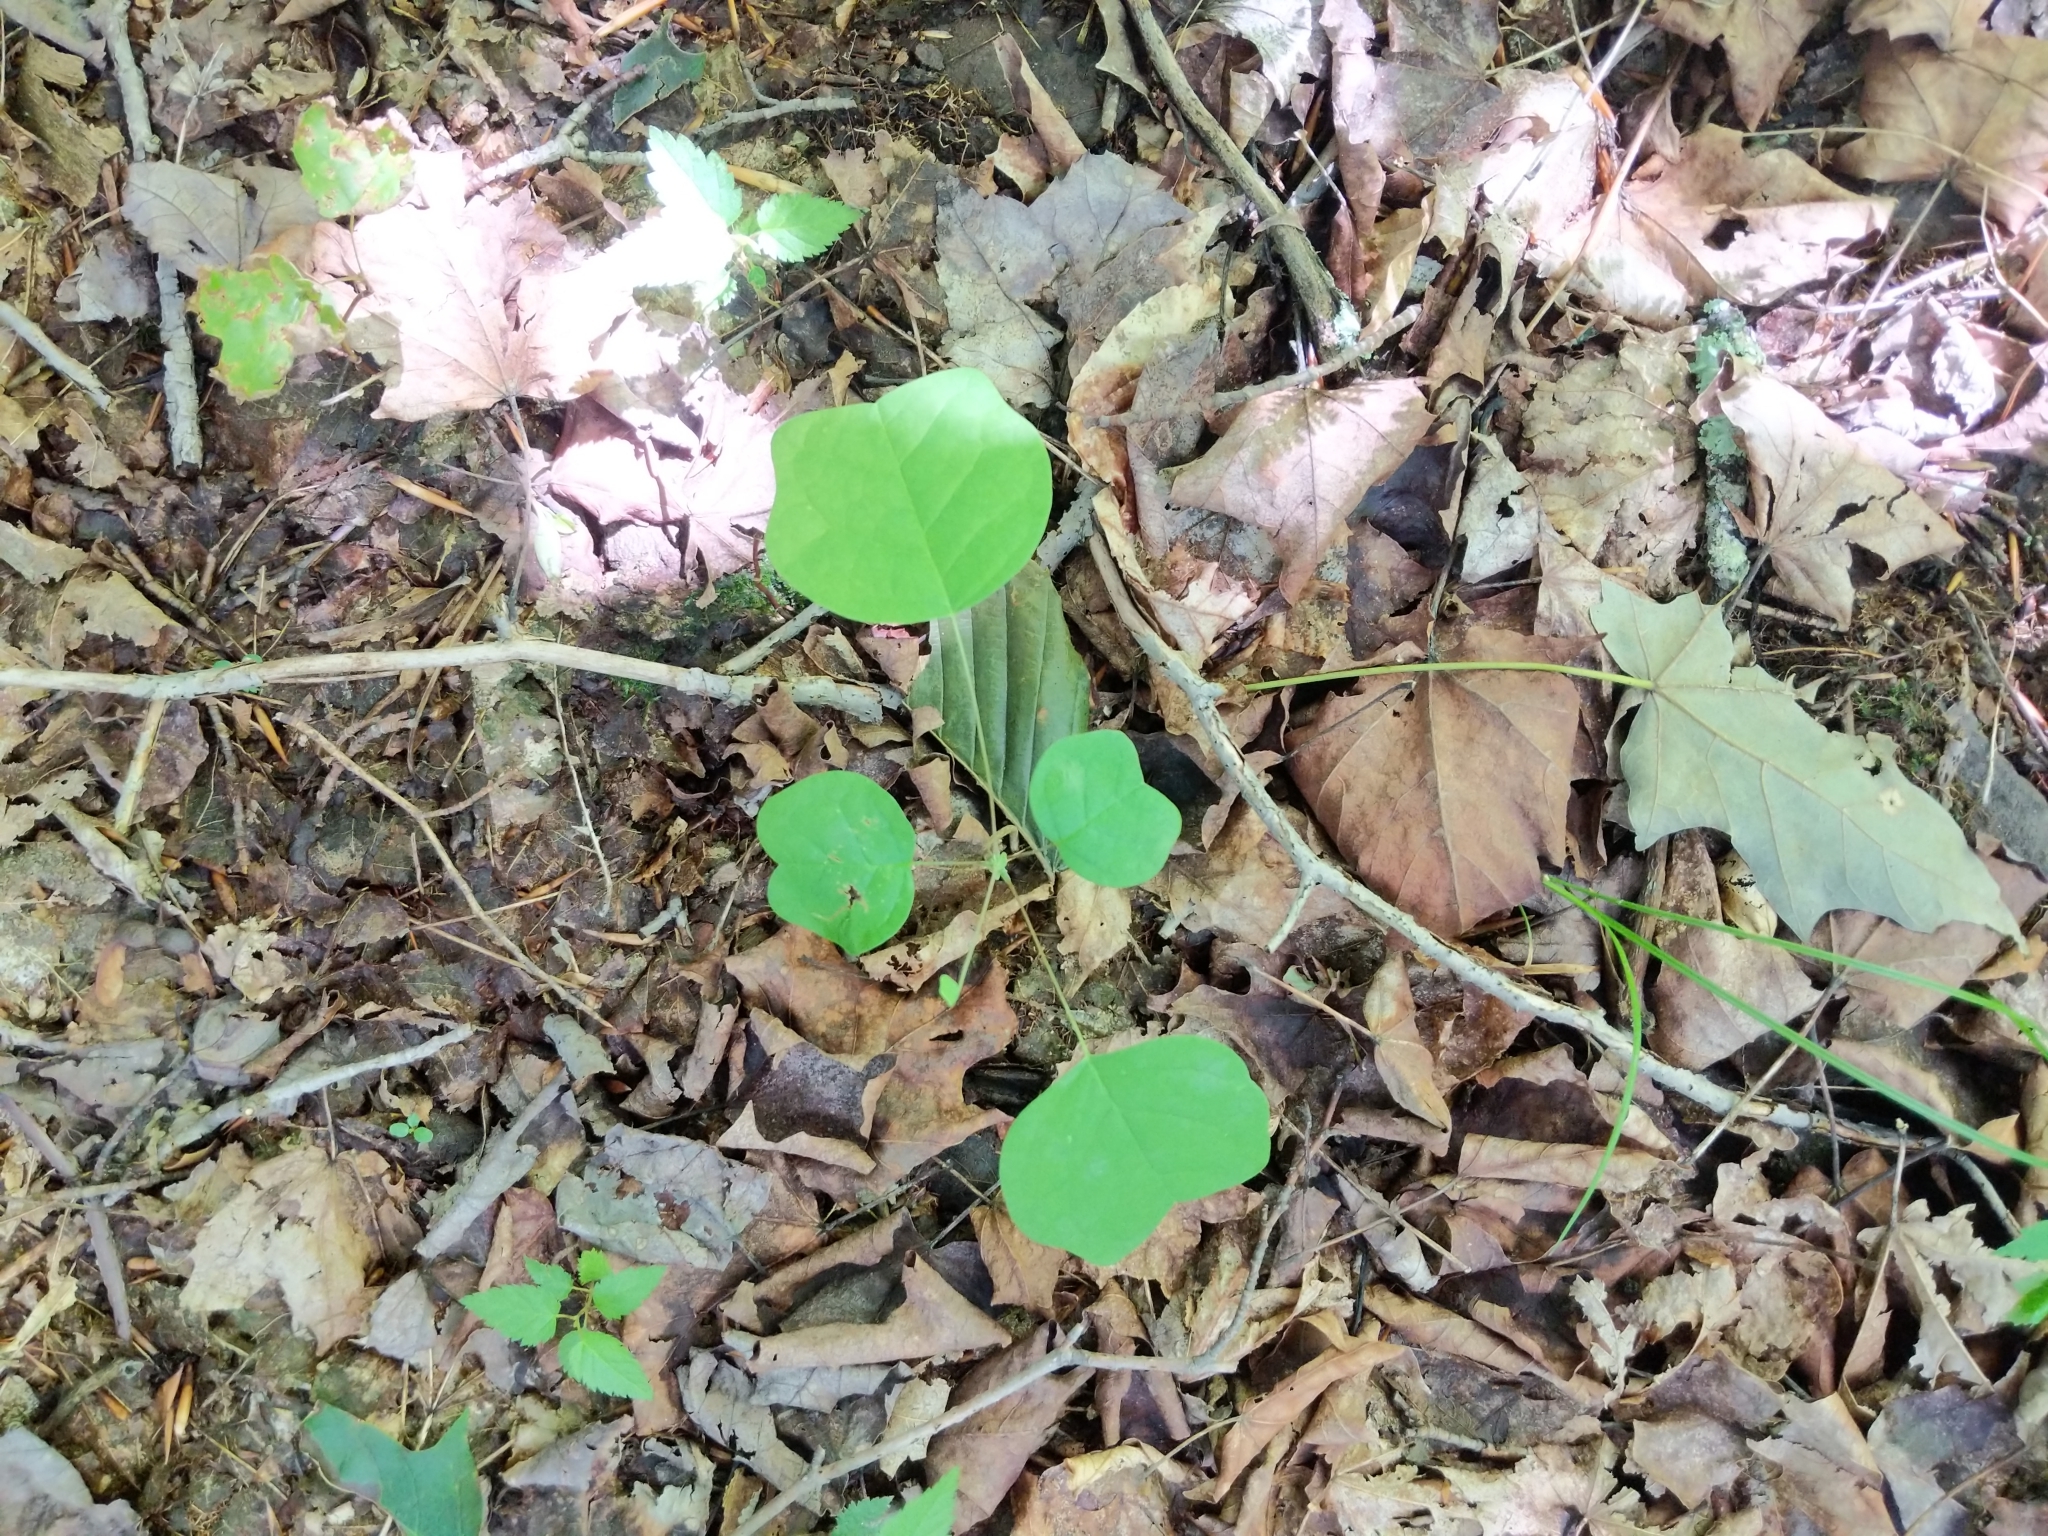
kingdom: Plantae
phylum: Tracheophyta
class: Magnoliopsida
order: Magnoliales
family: Magnoliaceae
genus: Liriodendron
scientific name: Liriodendron tulipifera
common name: Tulip tree
